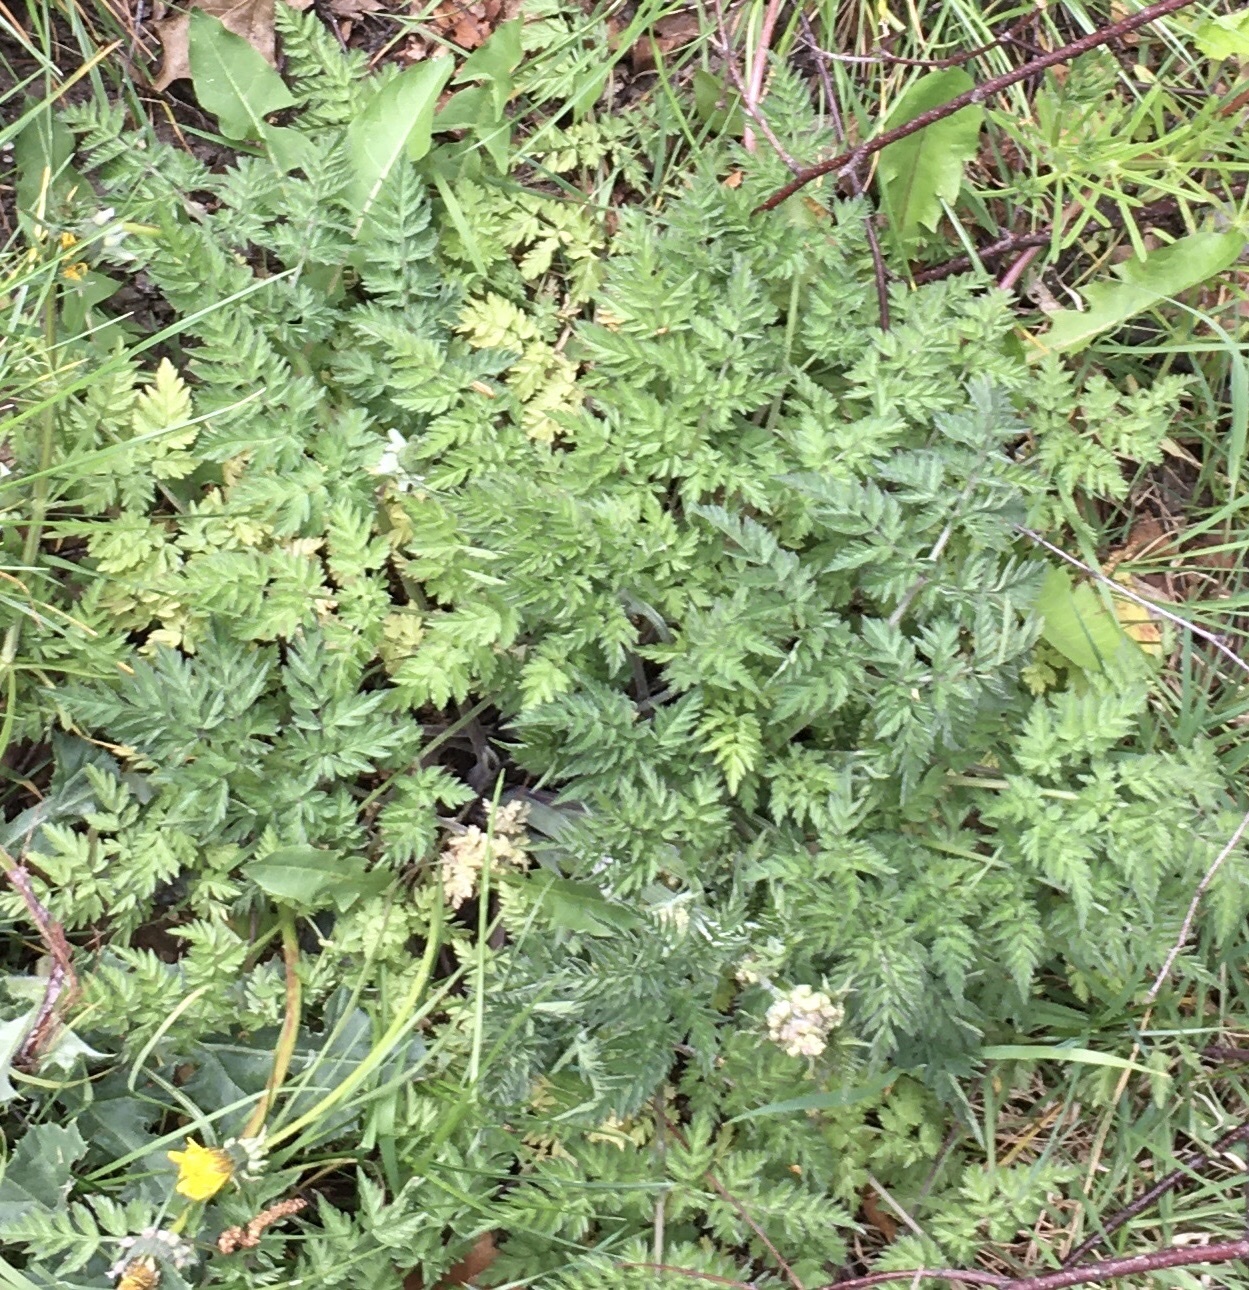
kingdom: Plantae
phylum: Tracheophyta
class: Magnoliopsida
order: Apiales
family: Apiaceae
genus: Anthriscus
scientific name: Anthriscus sylvestris
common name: Cow parsley
